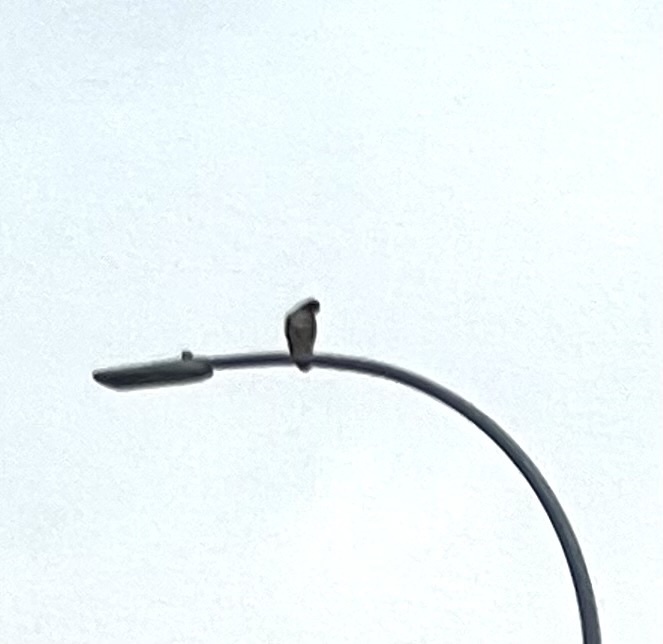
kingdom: Animalia
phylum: Chordata
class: Aves
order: Accipitriformes
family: Accipitridae
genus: Buteo
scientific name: Buteo jamaicensis
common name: Red-tailed hawk
